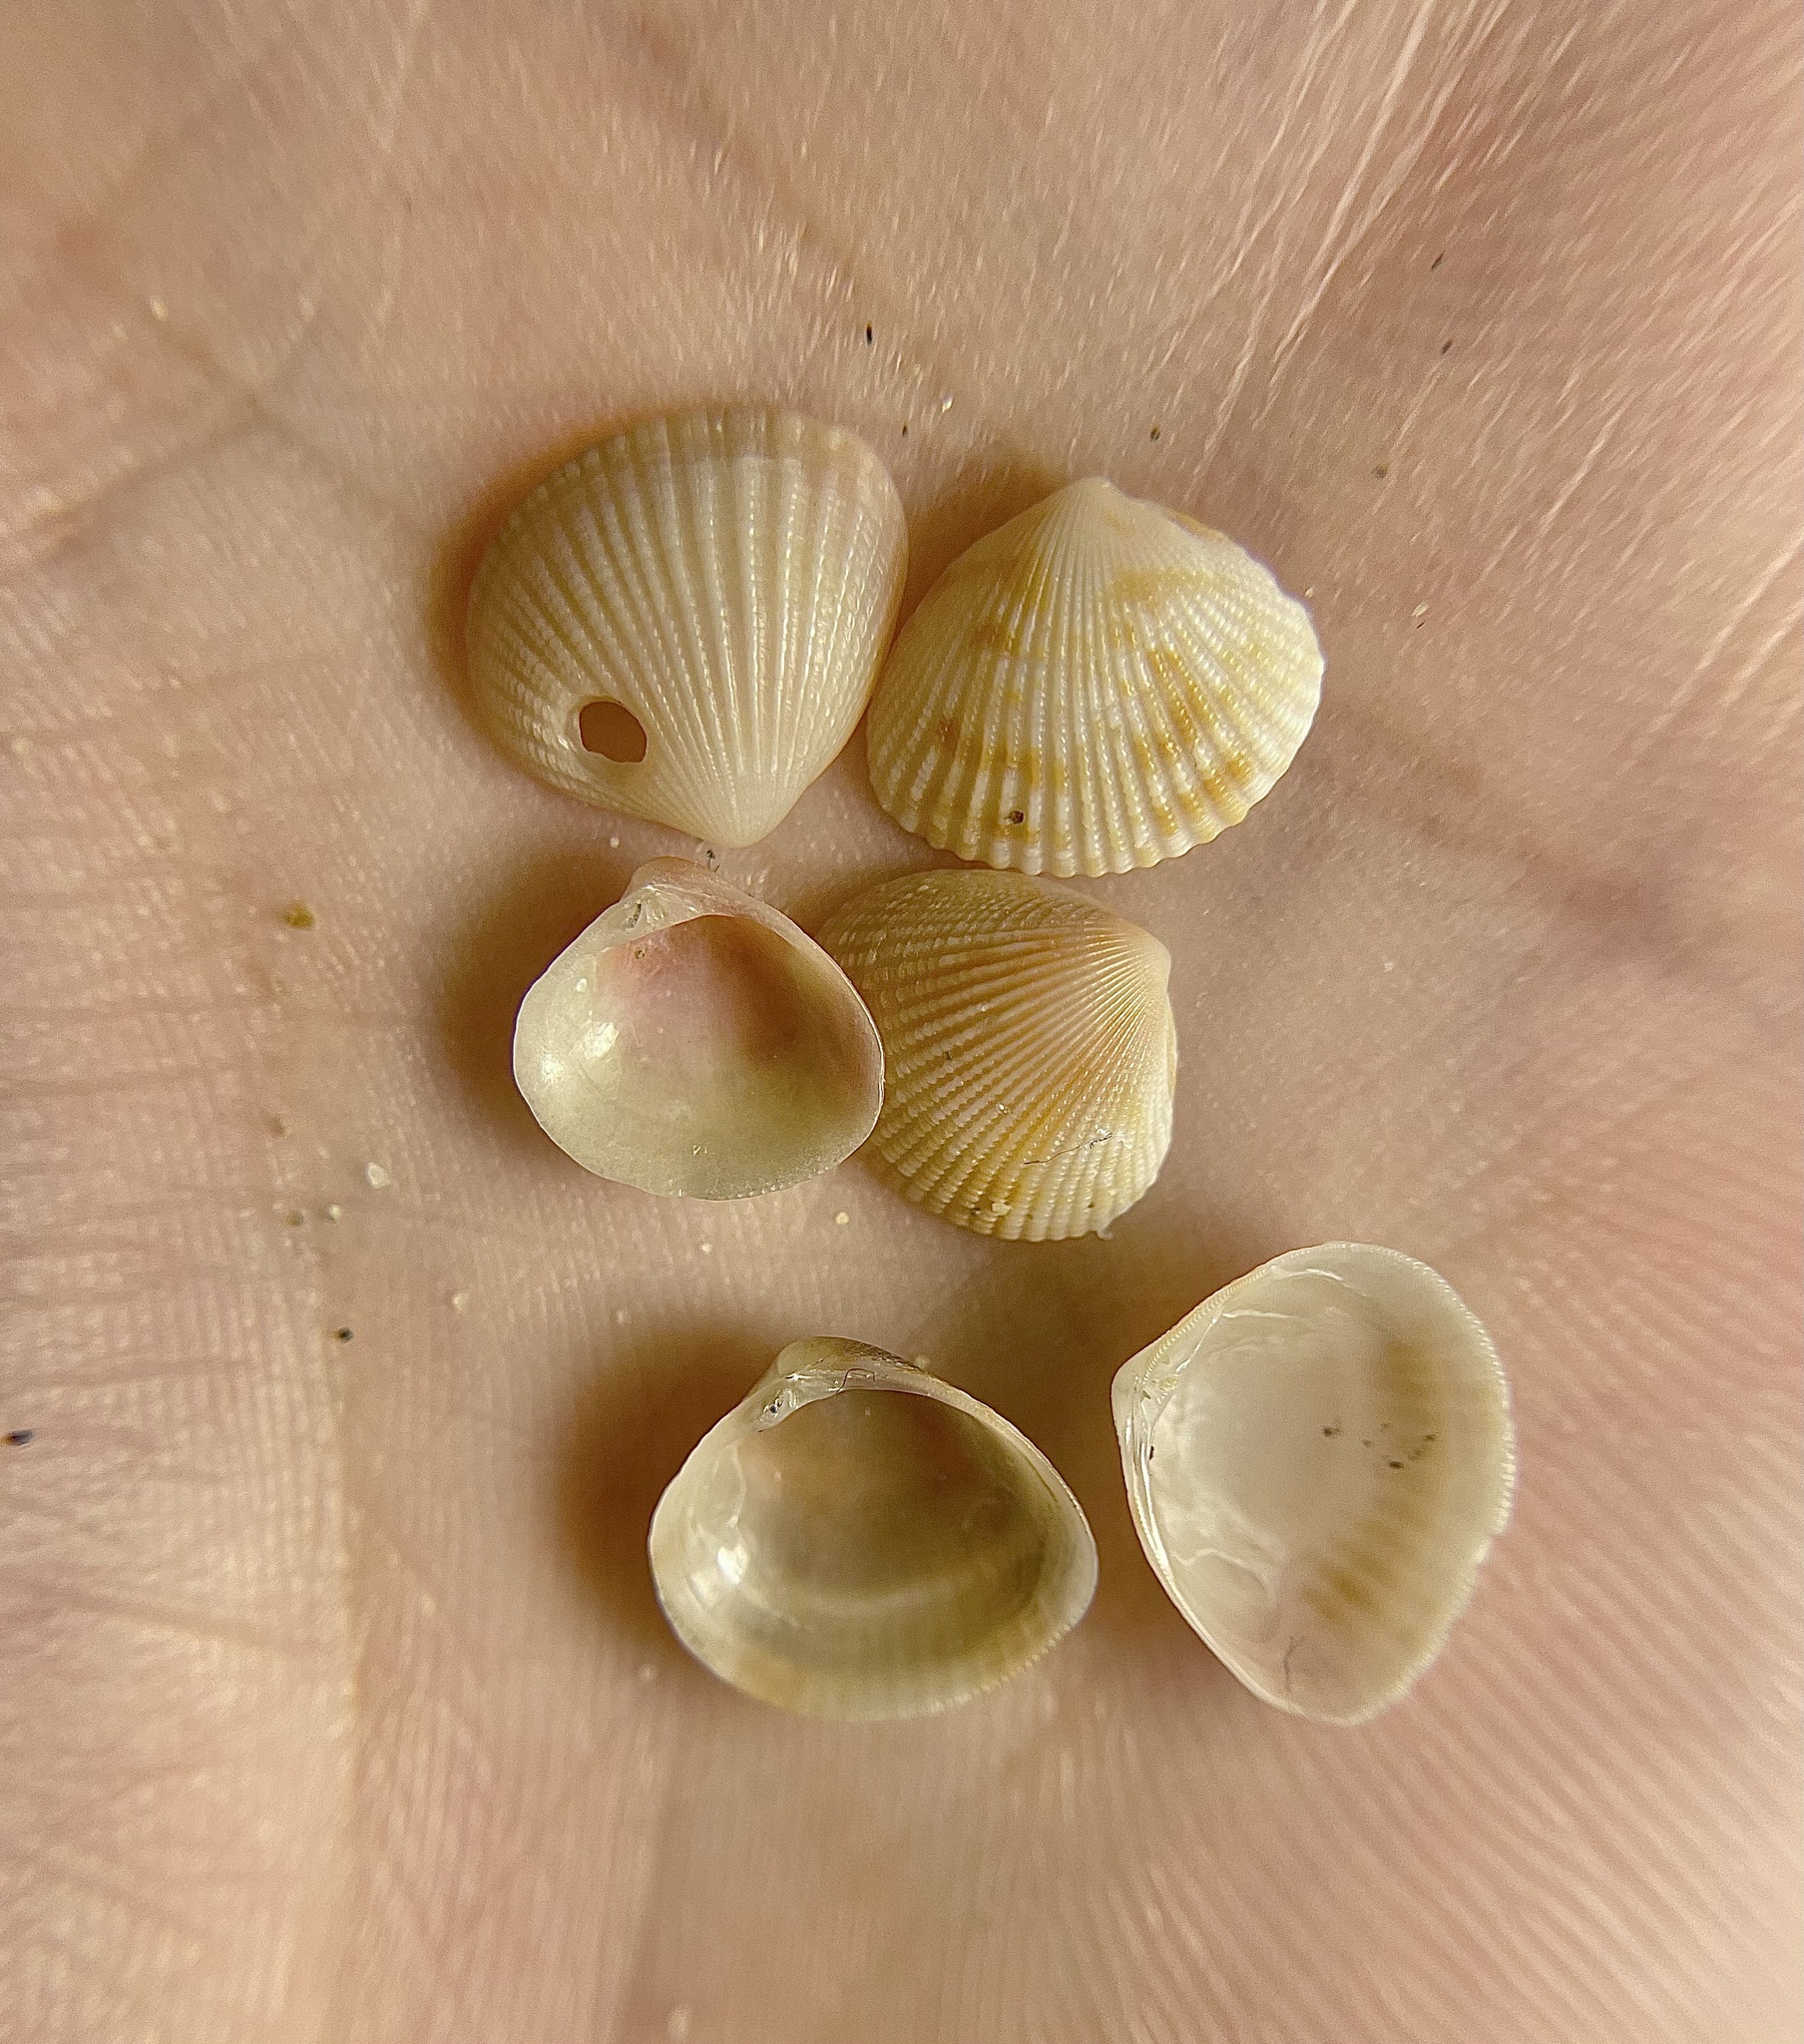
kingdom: Animalia
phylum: Mollusca
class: Bivalvia
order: Venerida
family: Veneridae
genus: Timoclea
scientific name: Timoclea ovata
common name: Oval venus
